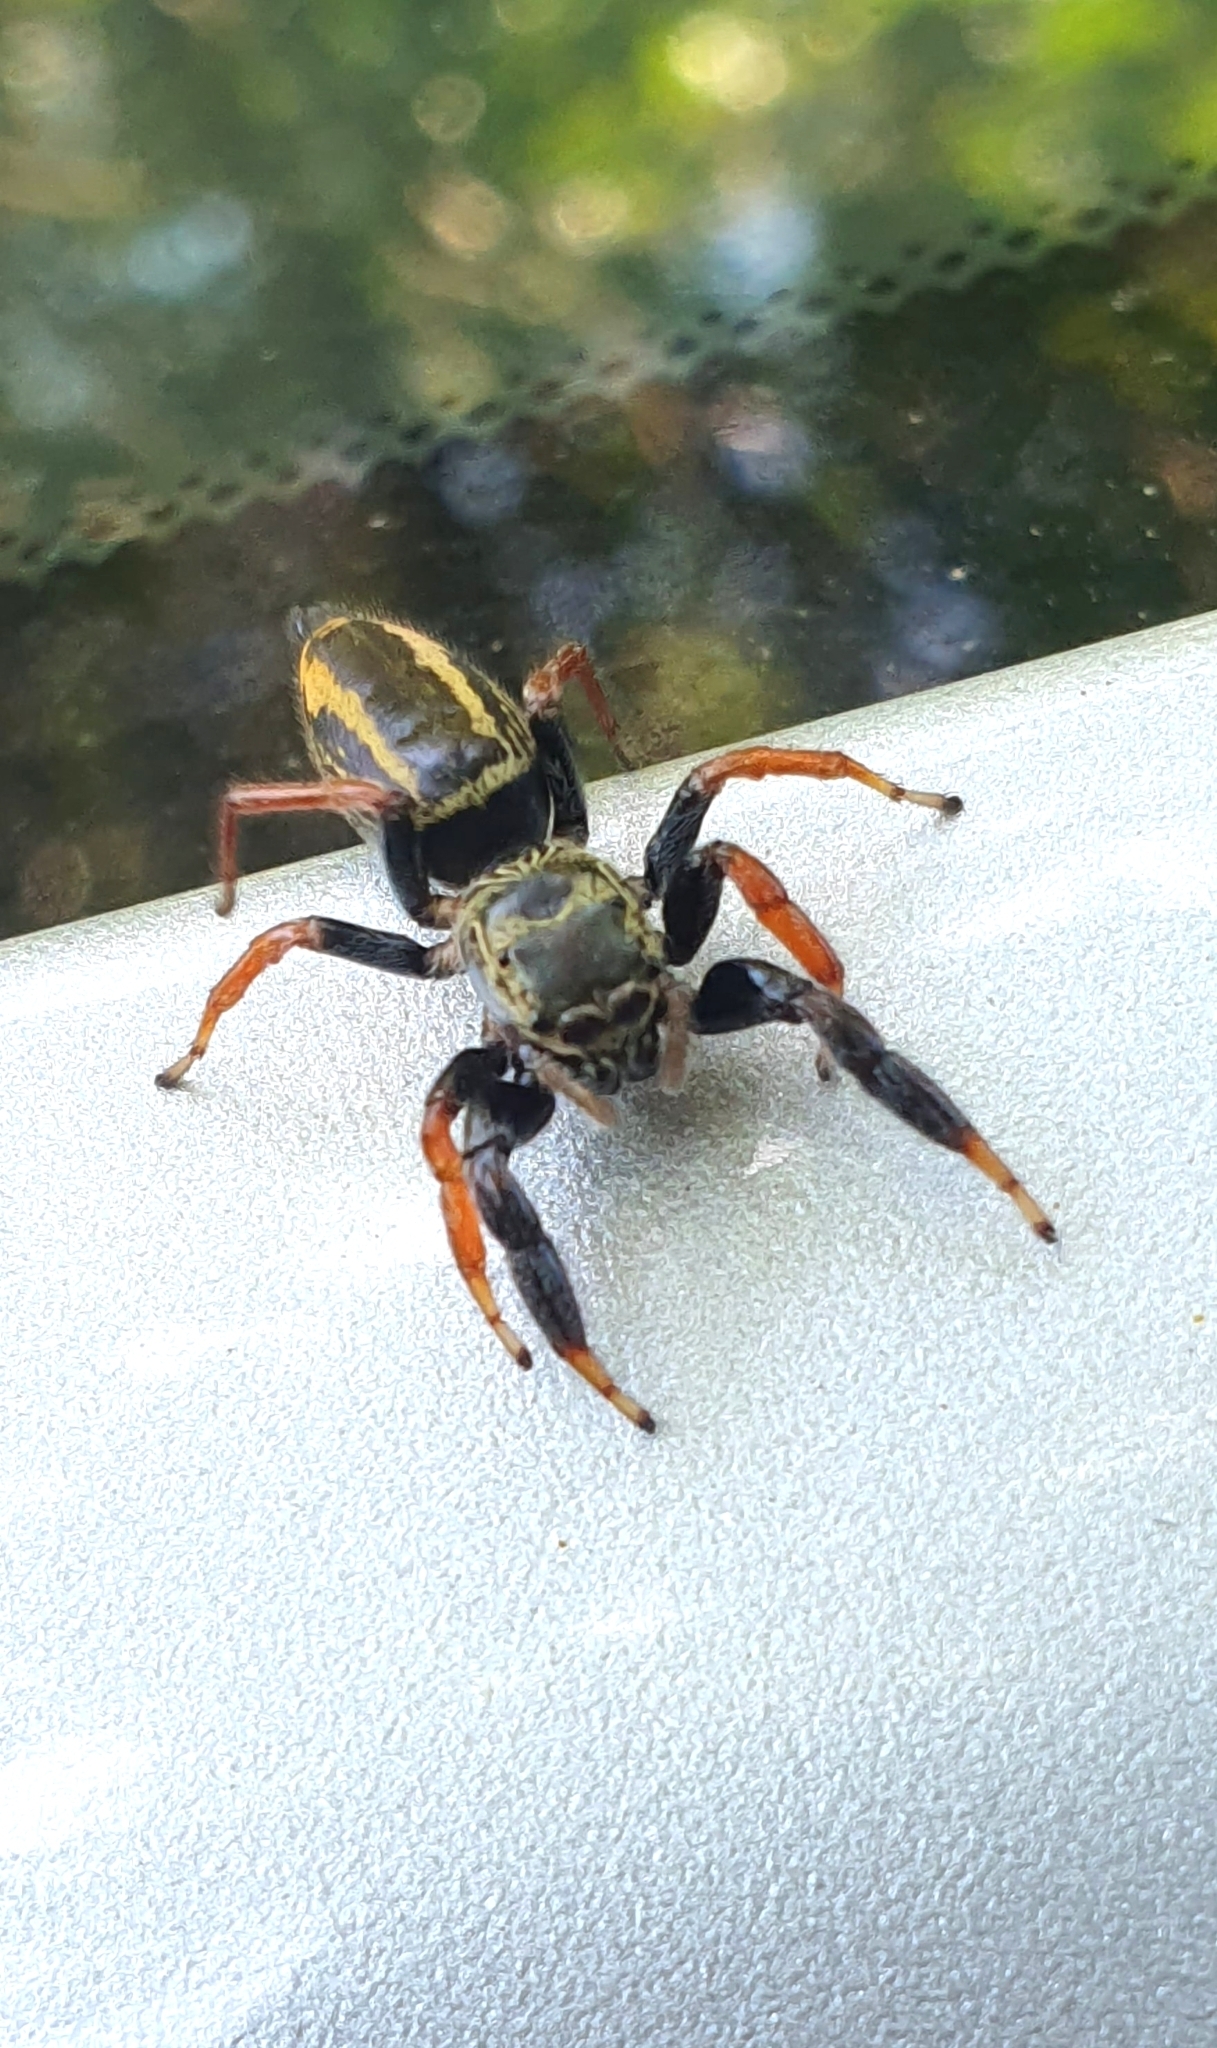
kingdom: Animalia
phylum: Arthropoda
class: Arachnida
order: Araneae
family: Salticidae
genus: Druzia
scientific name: Druzia flavostriata
